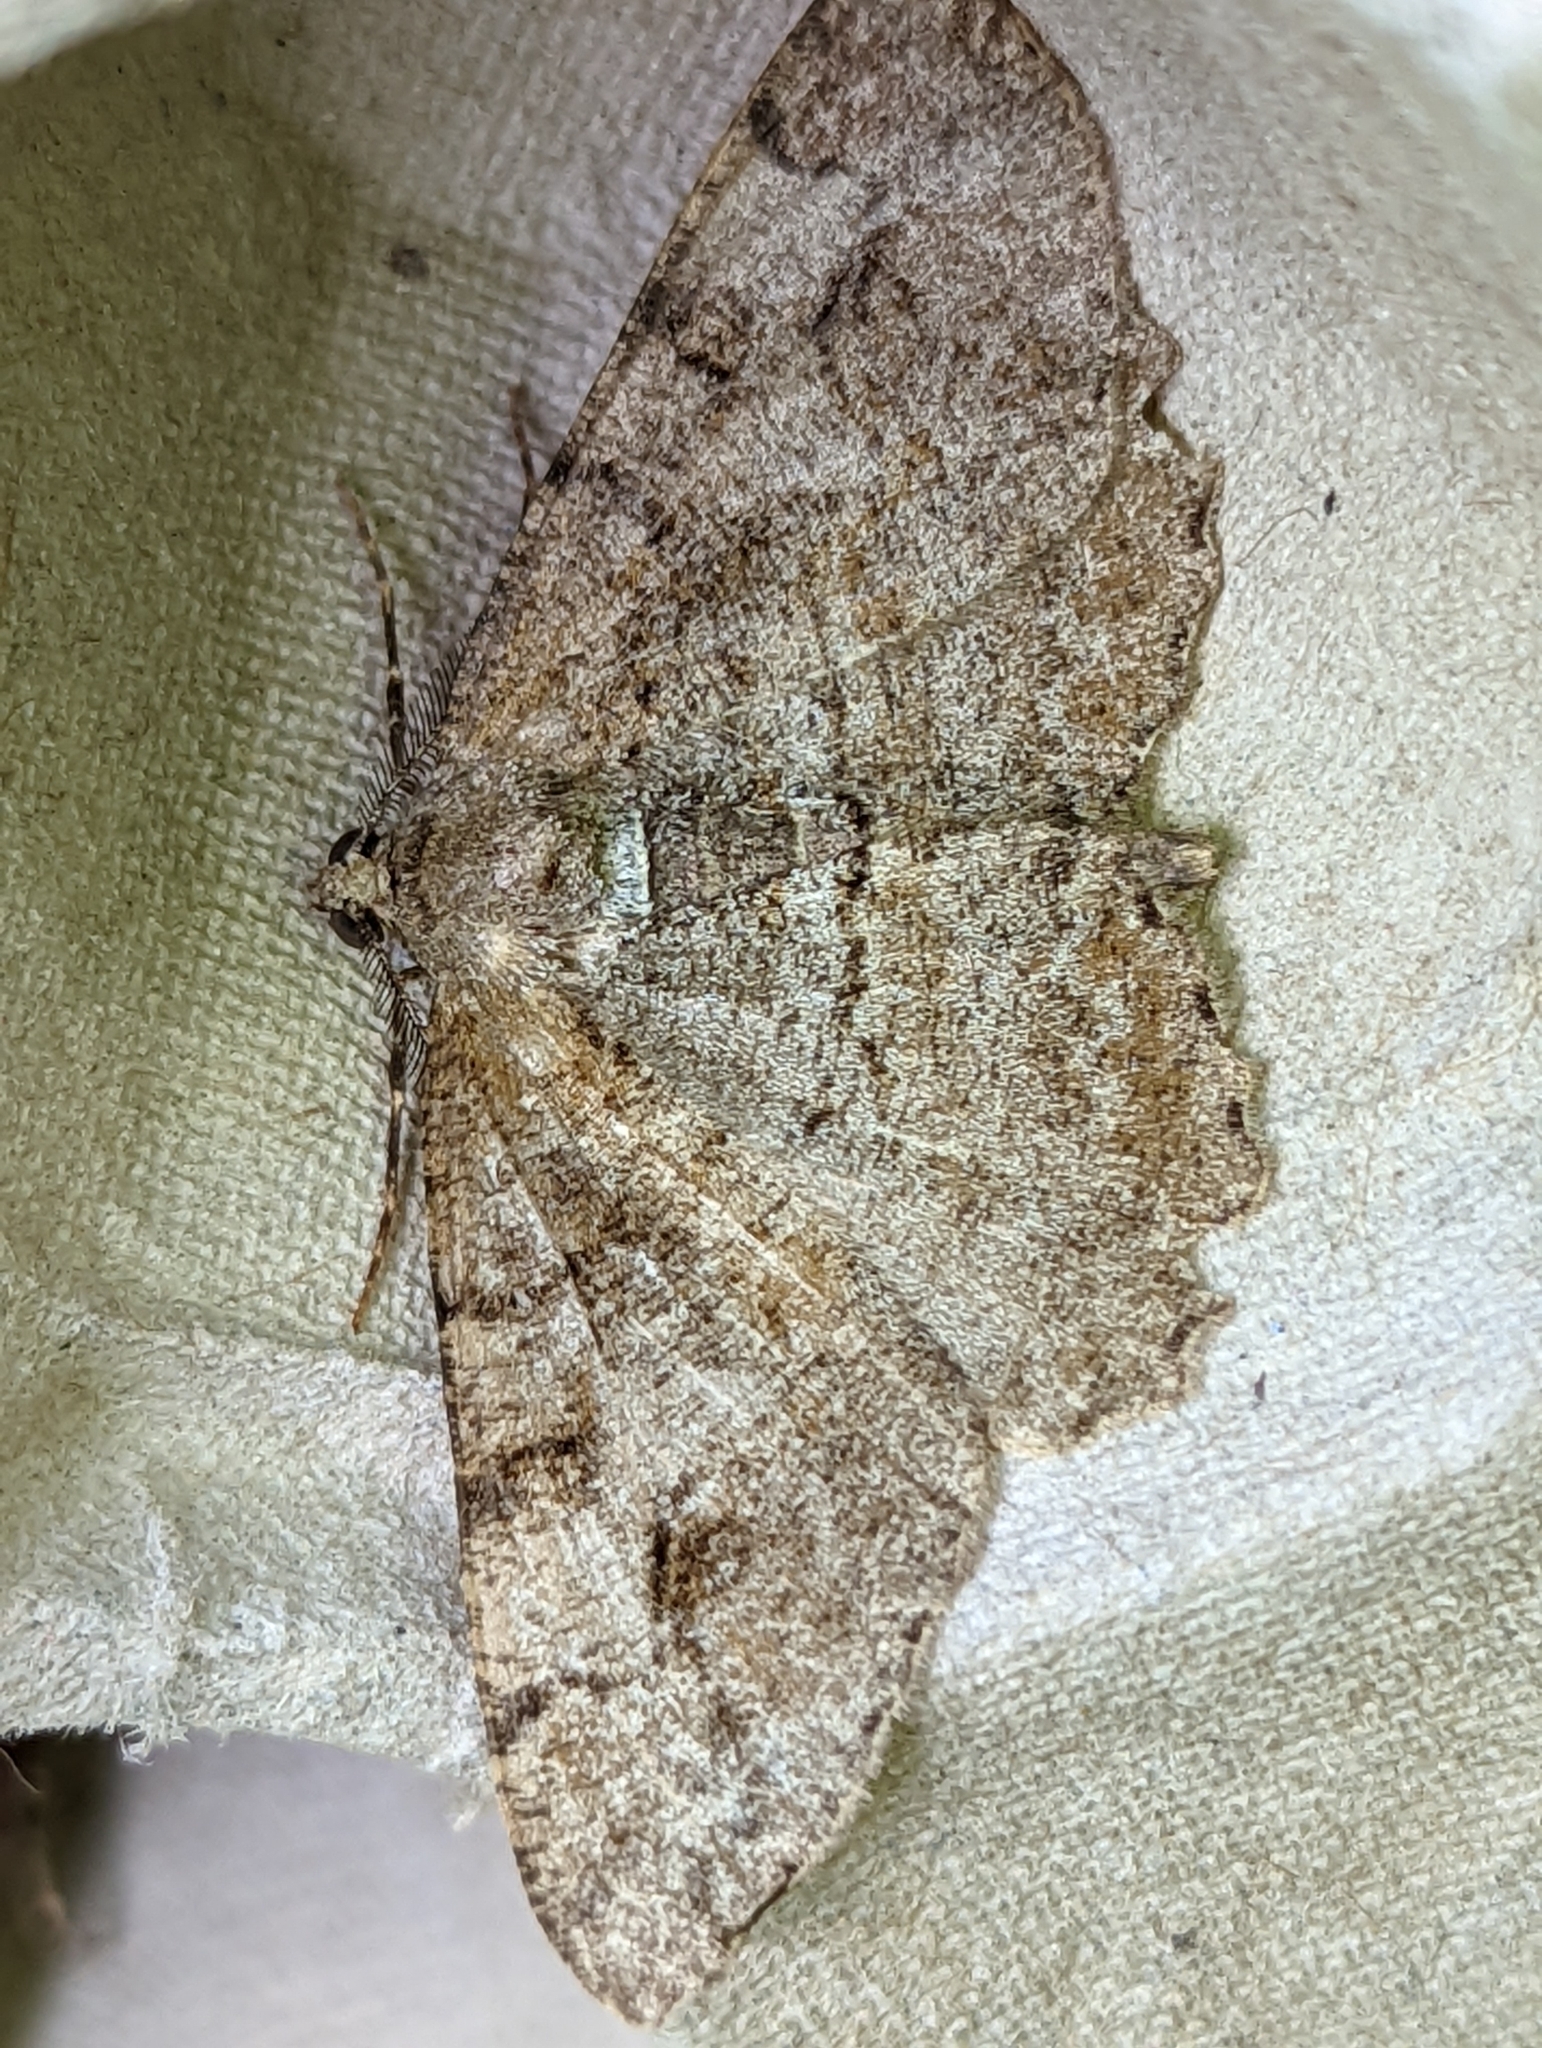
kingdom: Animalia
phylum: Arthropoda
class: Insecta
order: Lepidoptera
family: Geometridae
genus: Alcis
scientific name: Alcis repandata
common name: Mottled beauty
